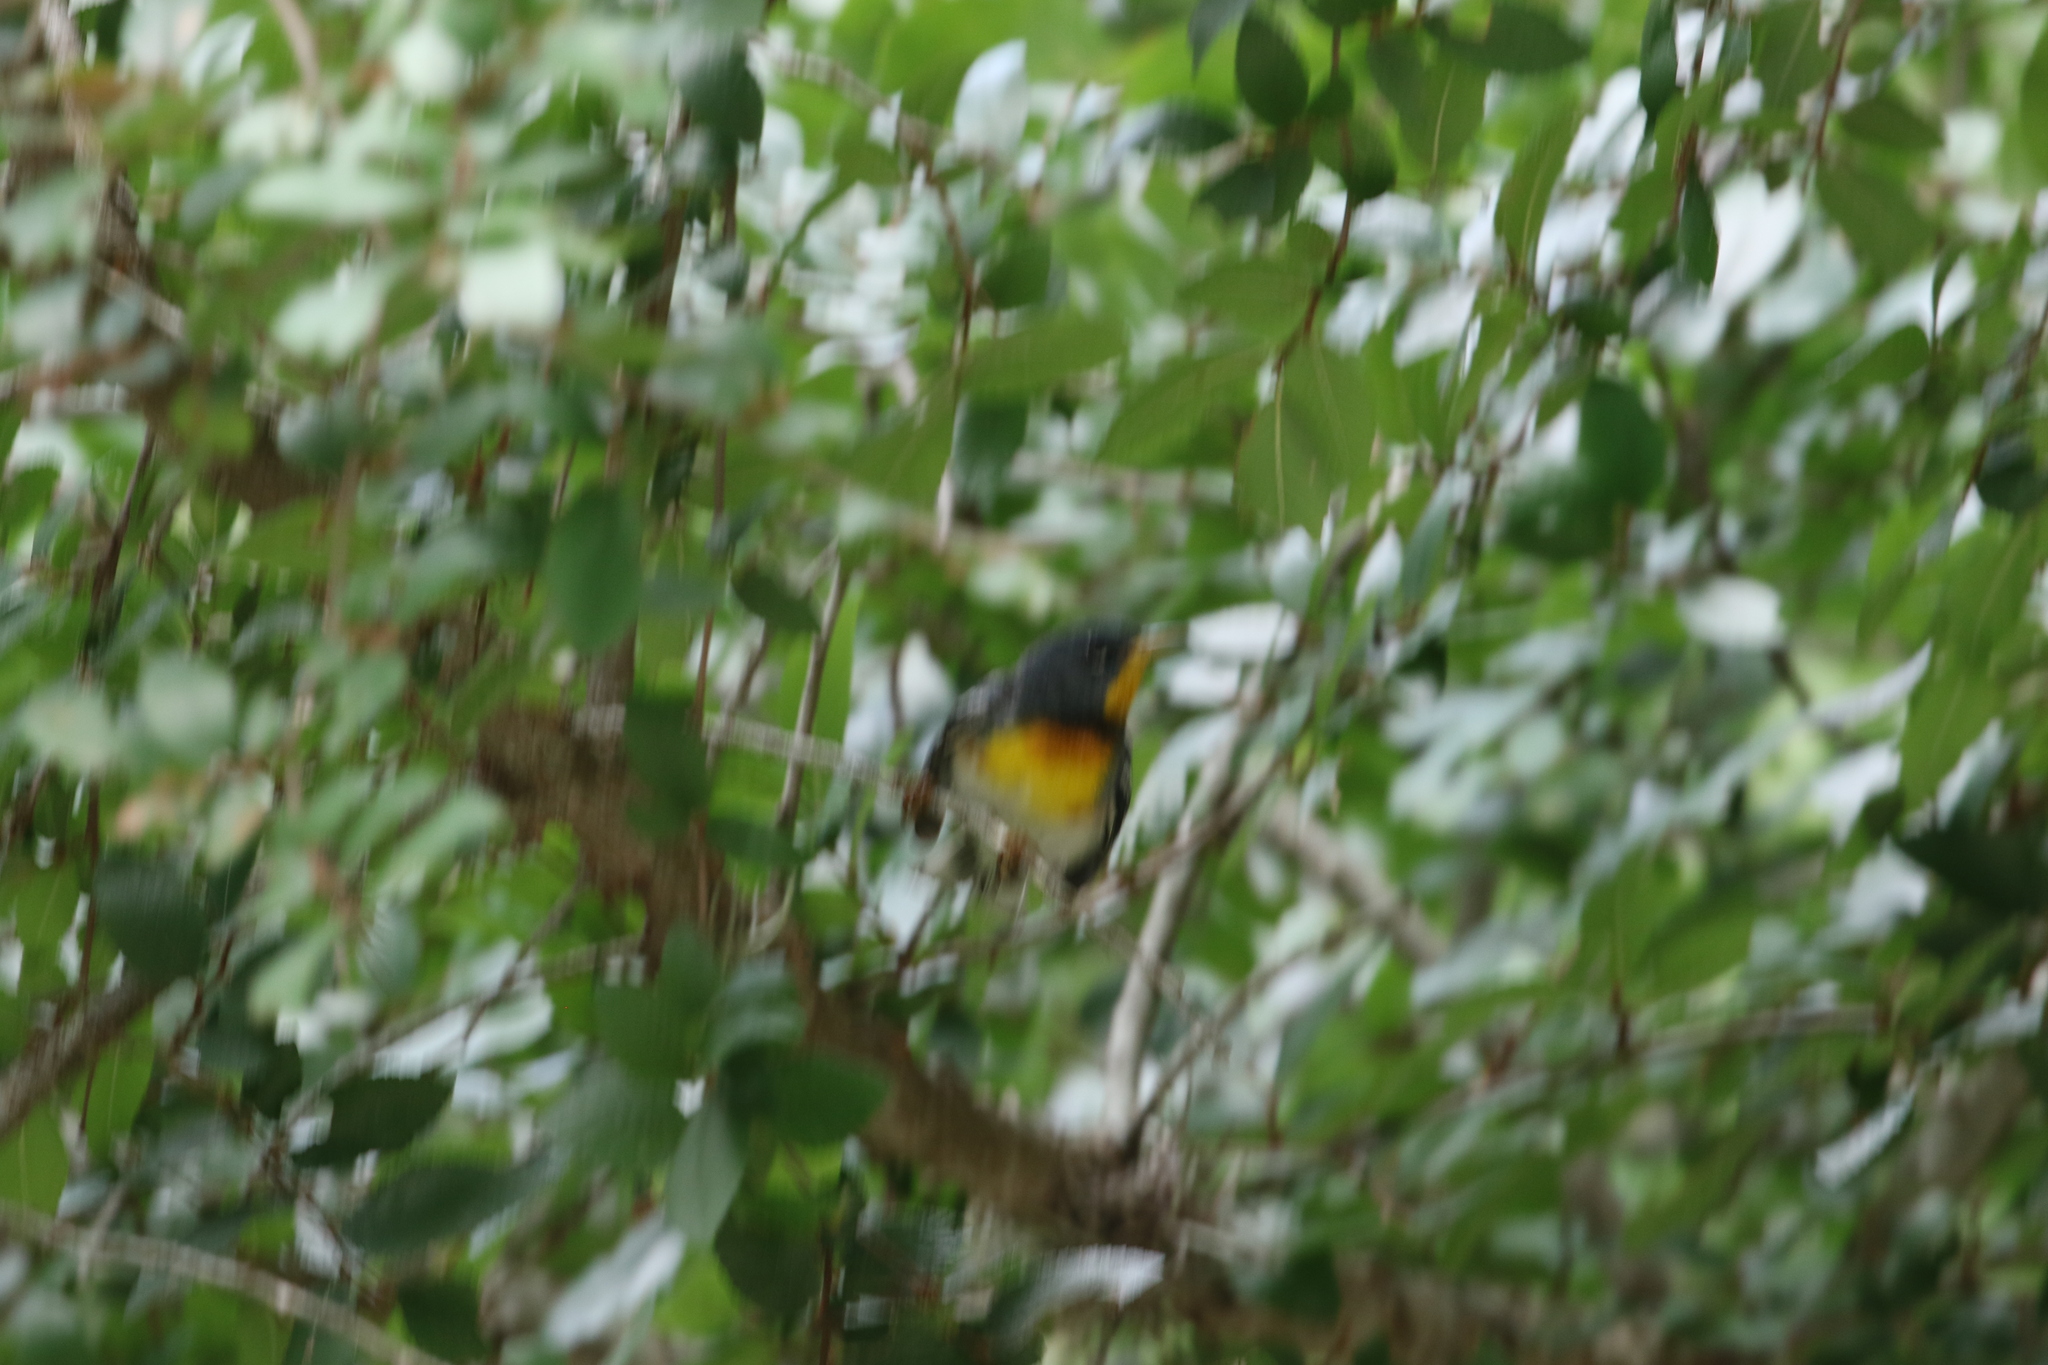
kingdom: Animalia
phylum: Chordata
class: Aves
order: Passeriformes
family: Parulidae
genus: Setophaga
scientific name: Setophaga americana
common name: Northern parula
